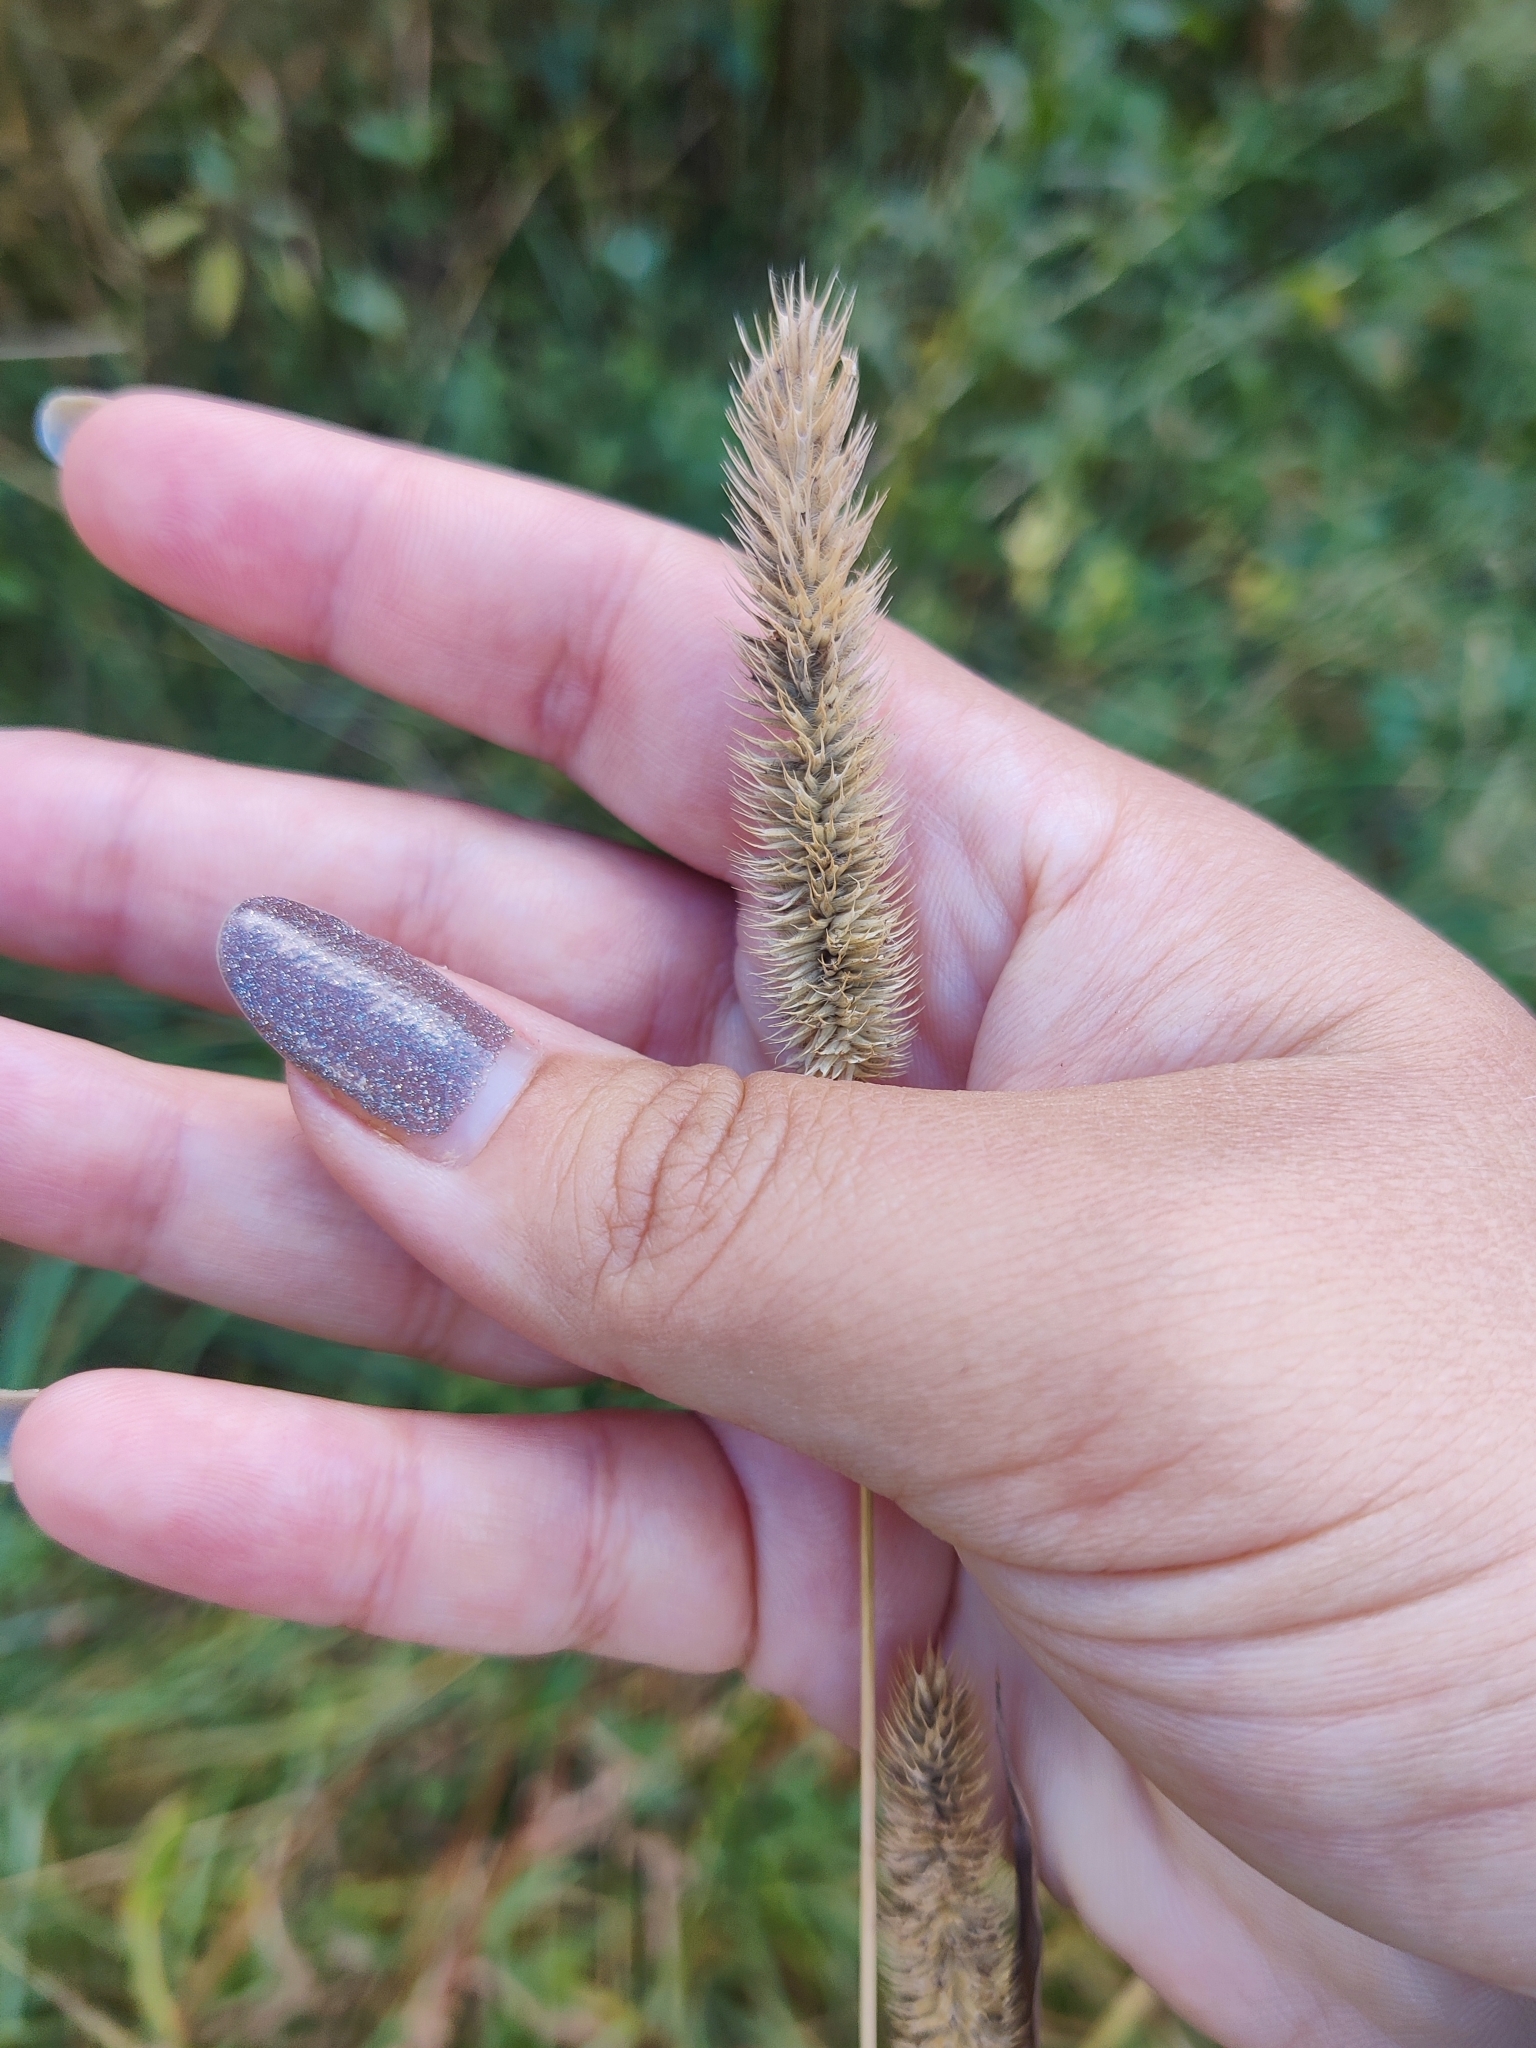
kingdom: Plantae
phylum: Tracheophyta
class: Liliopsida
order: Poales
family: Poaceae
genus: Phleum
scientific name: Phleum pratense
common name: Timothy grass
